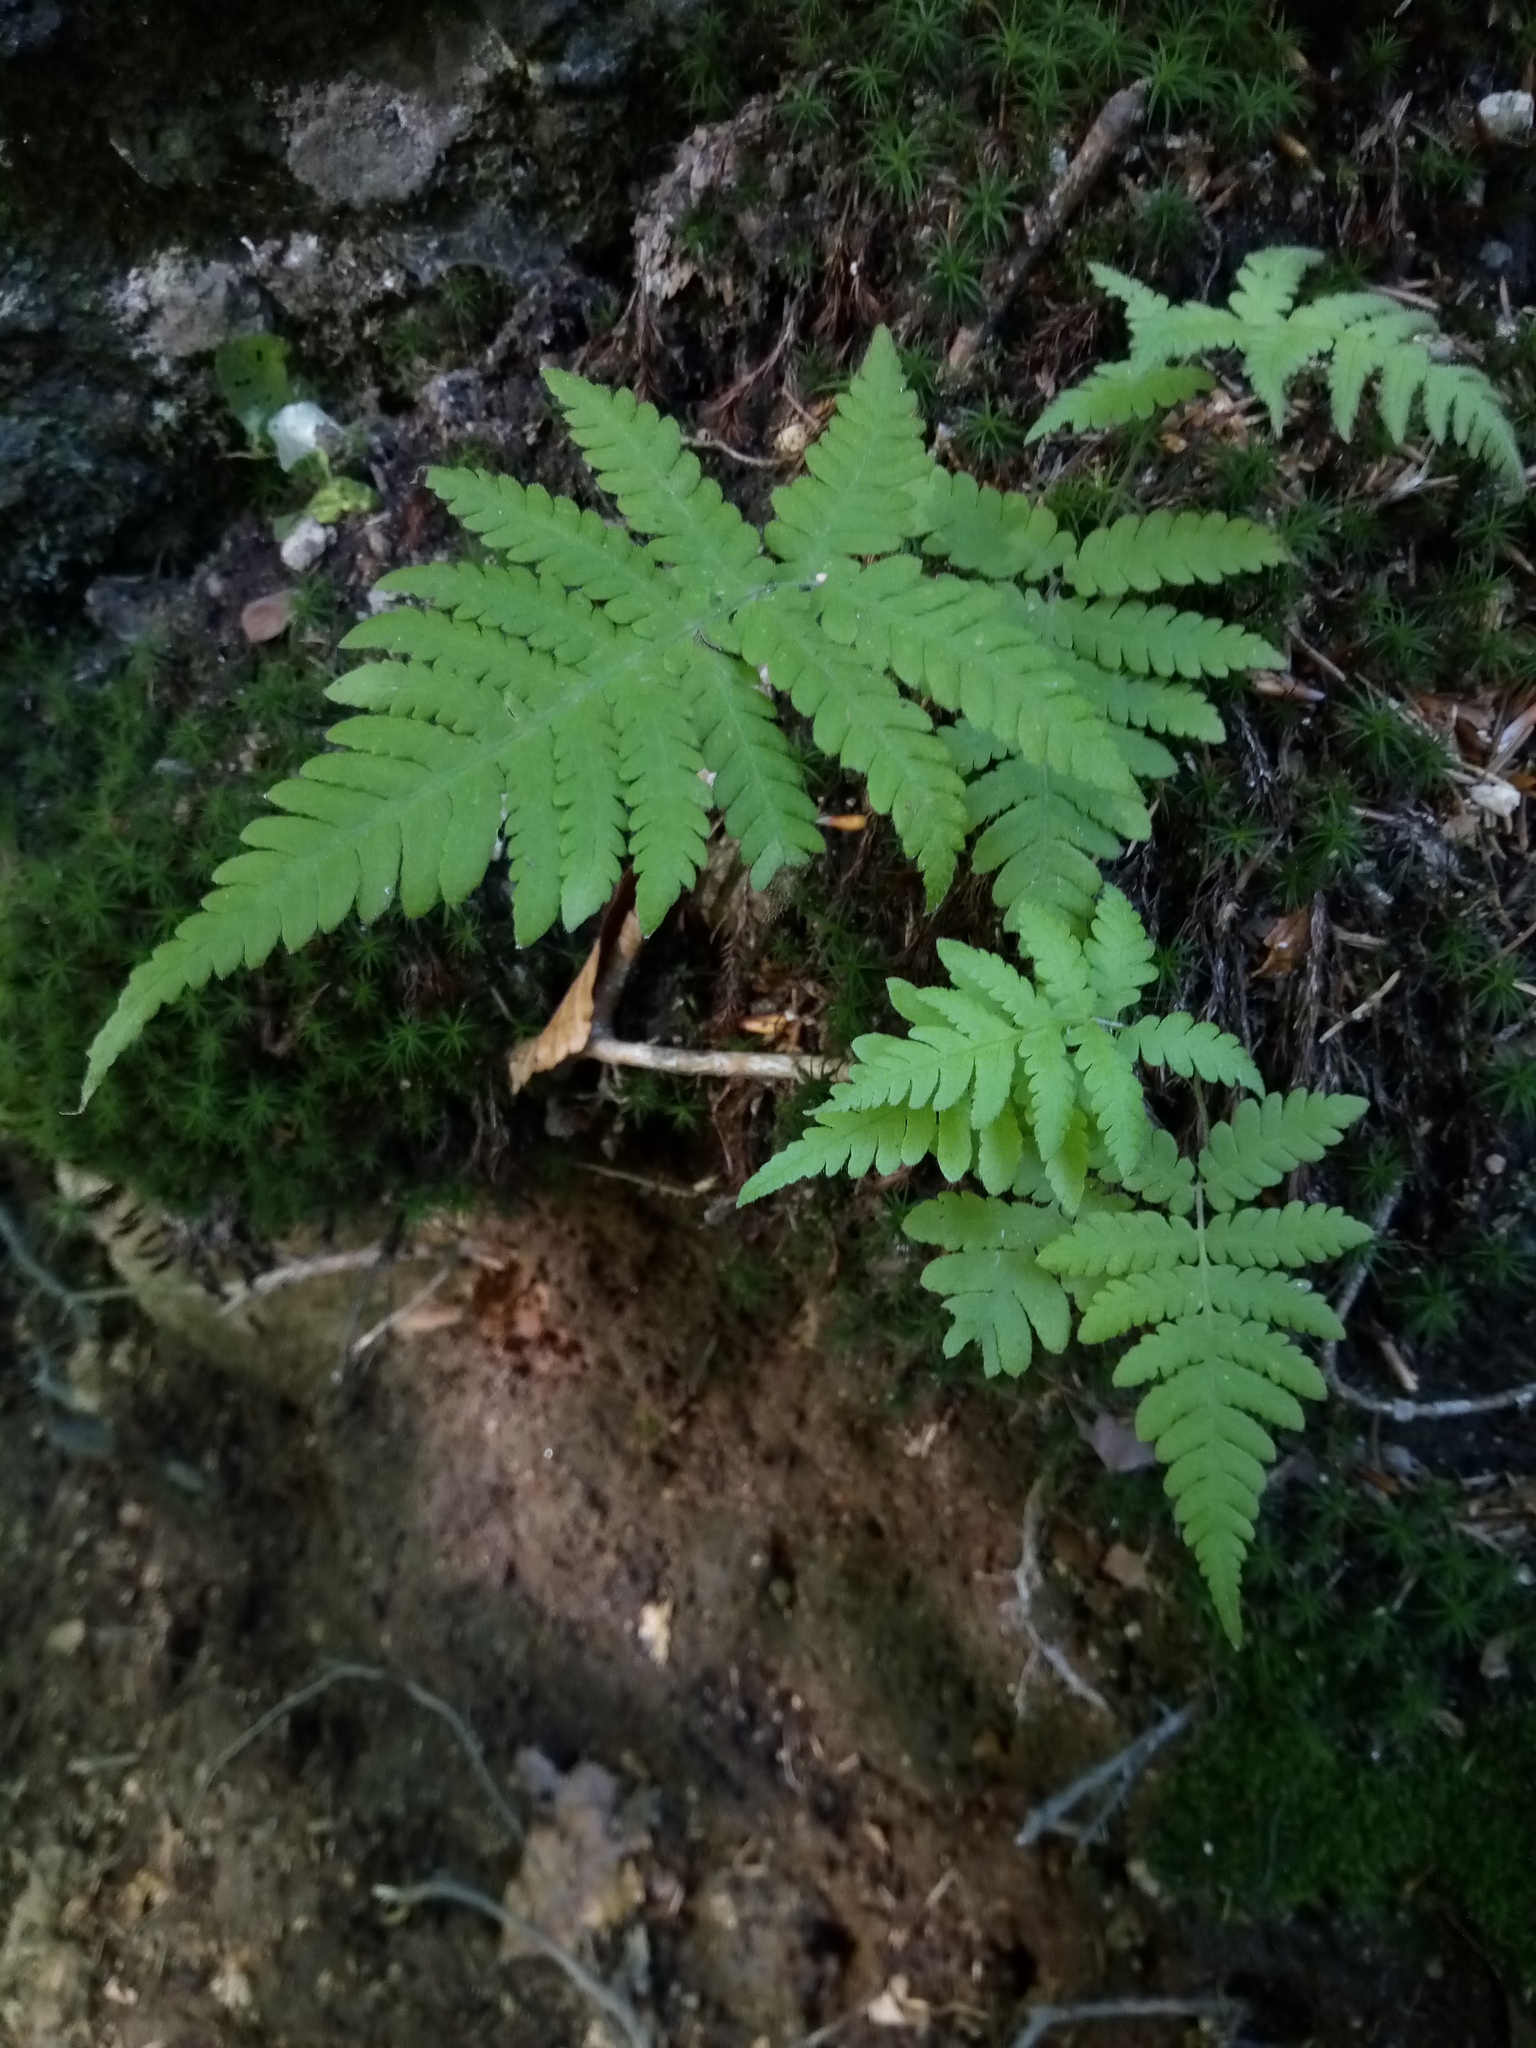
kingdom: Plantae
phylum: Tracheophyta
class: Polypodiopsida
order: Polypodiales
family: Thelypteridaceae
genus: Phegopteris
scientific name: Phegopteris connectilis
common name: Beech fern
